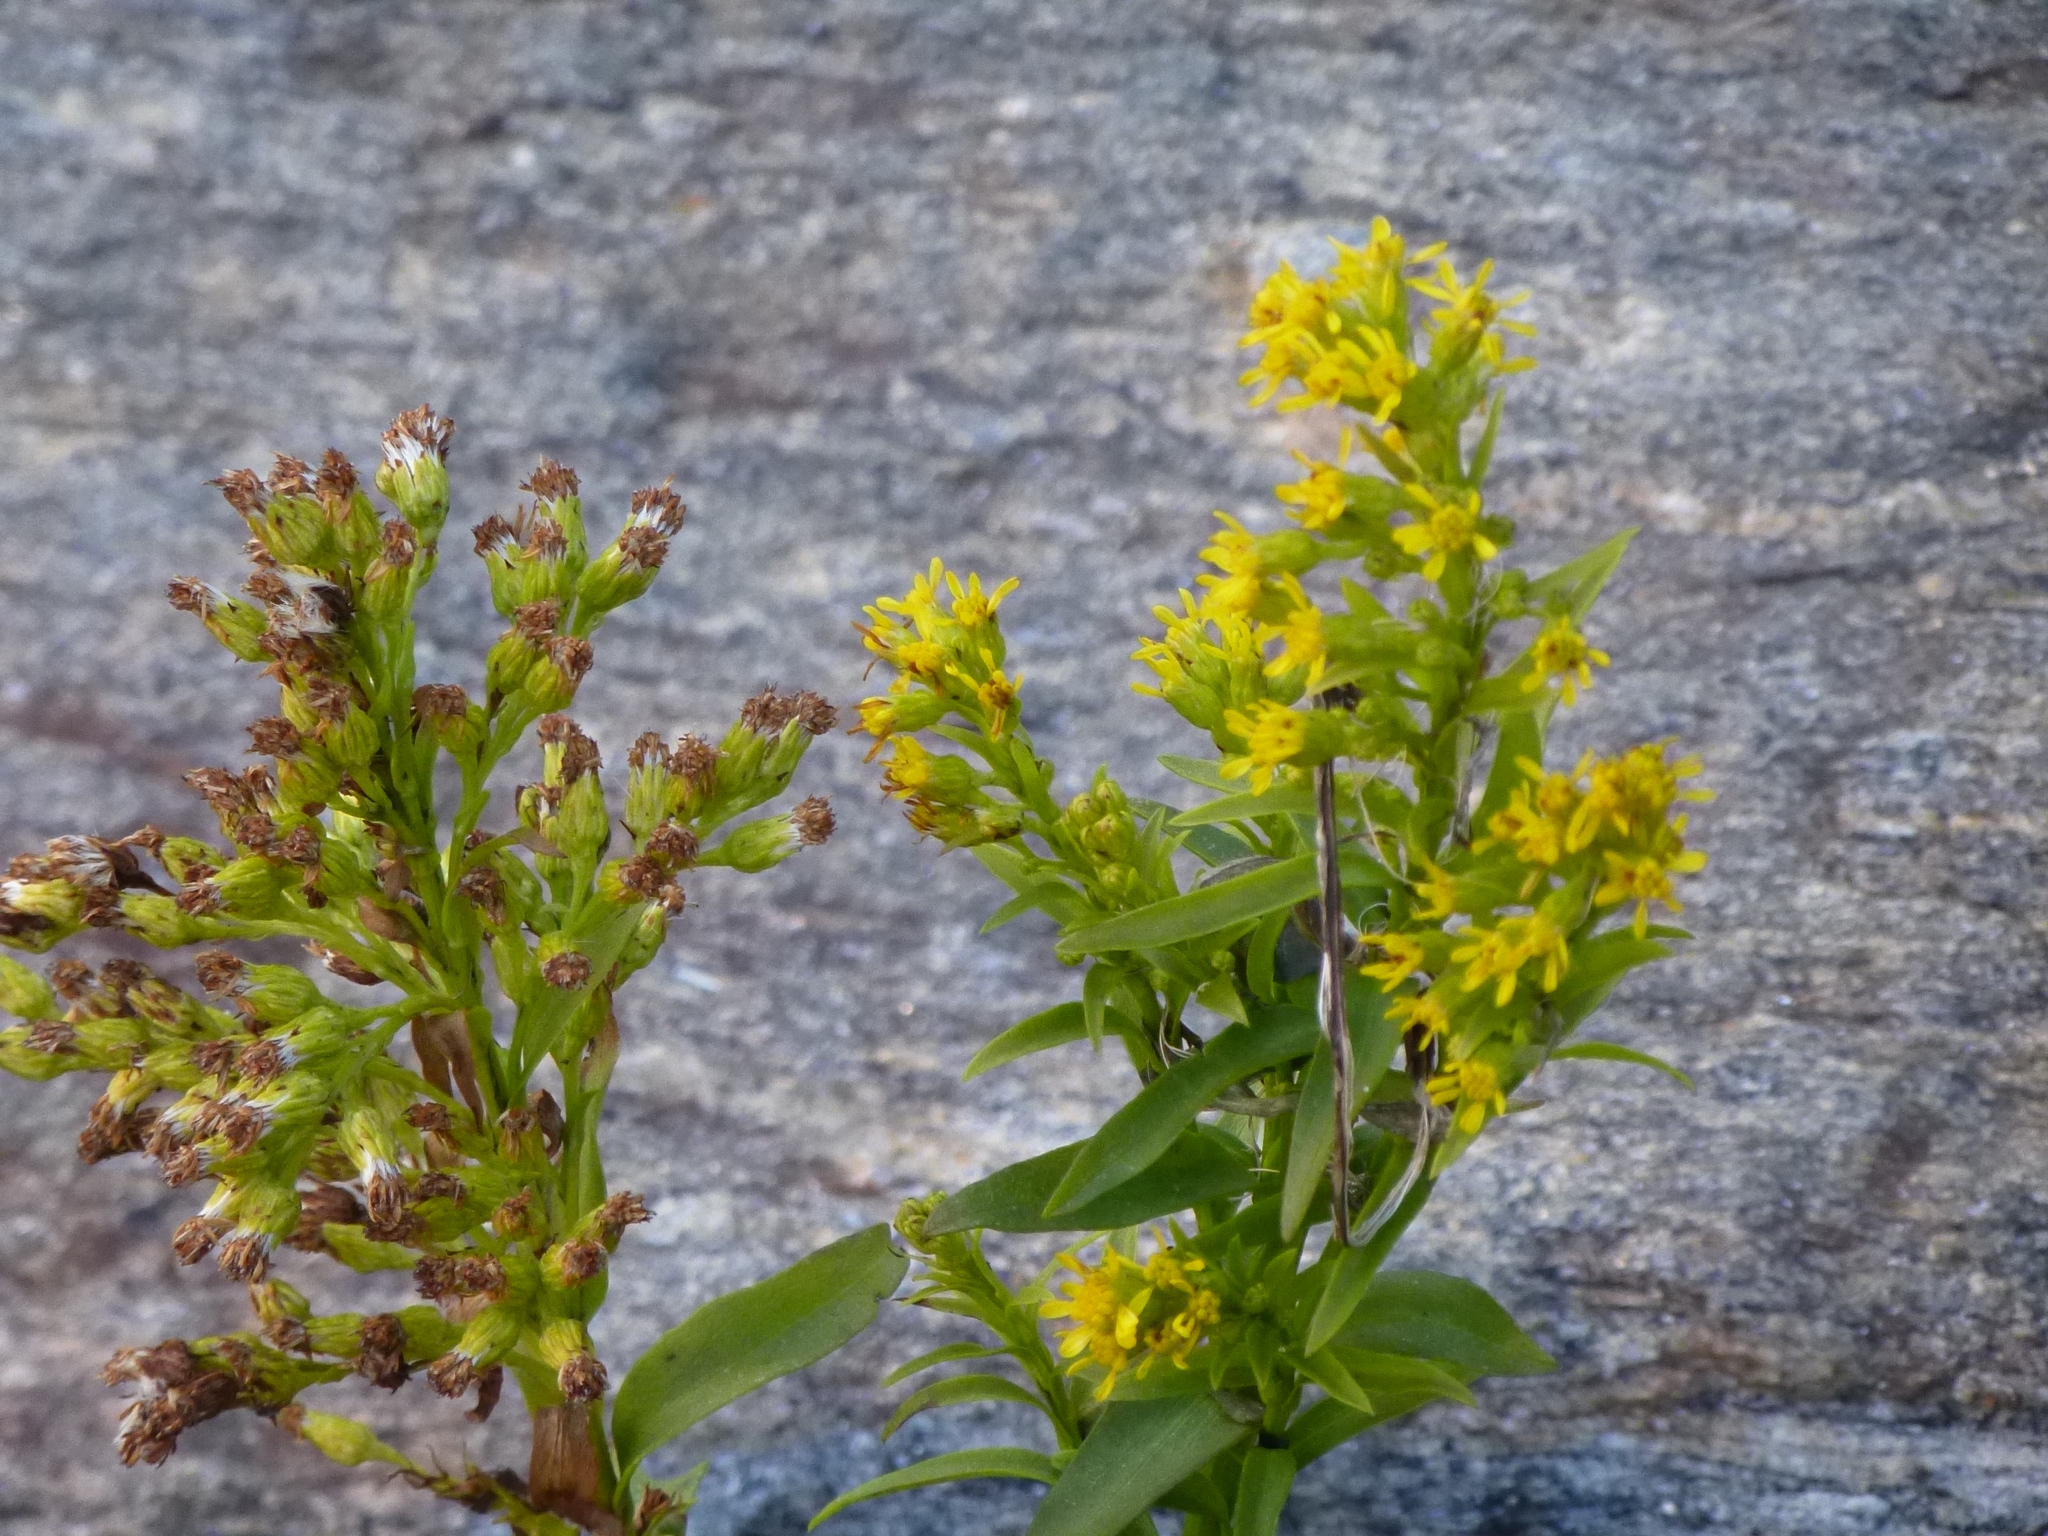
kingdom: Plantae
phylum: Tracheophyta
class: Magnoliopsida
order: Asterales
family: Asteraceae
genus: Solidago
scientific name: Solidago sempervirens
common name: Salt-marsh goldenrod
